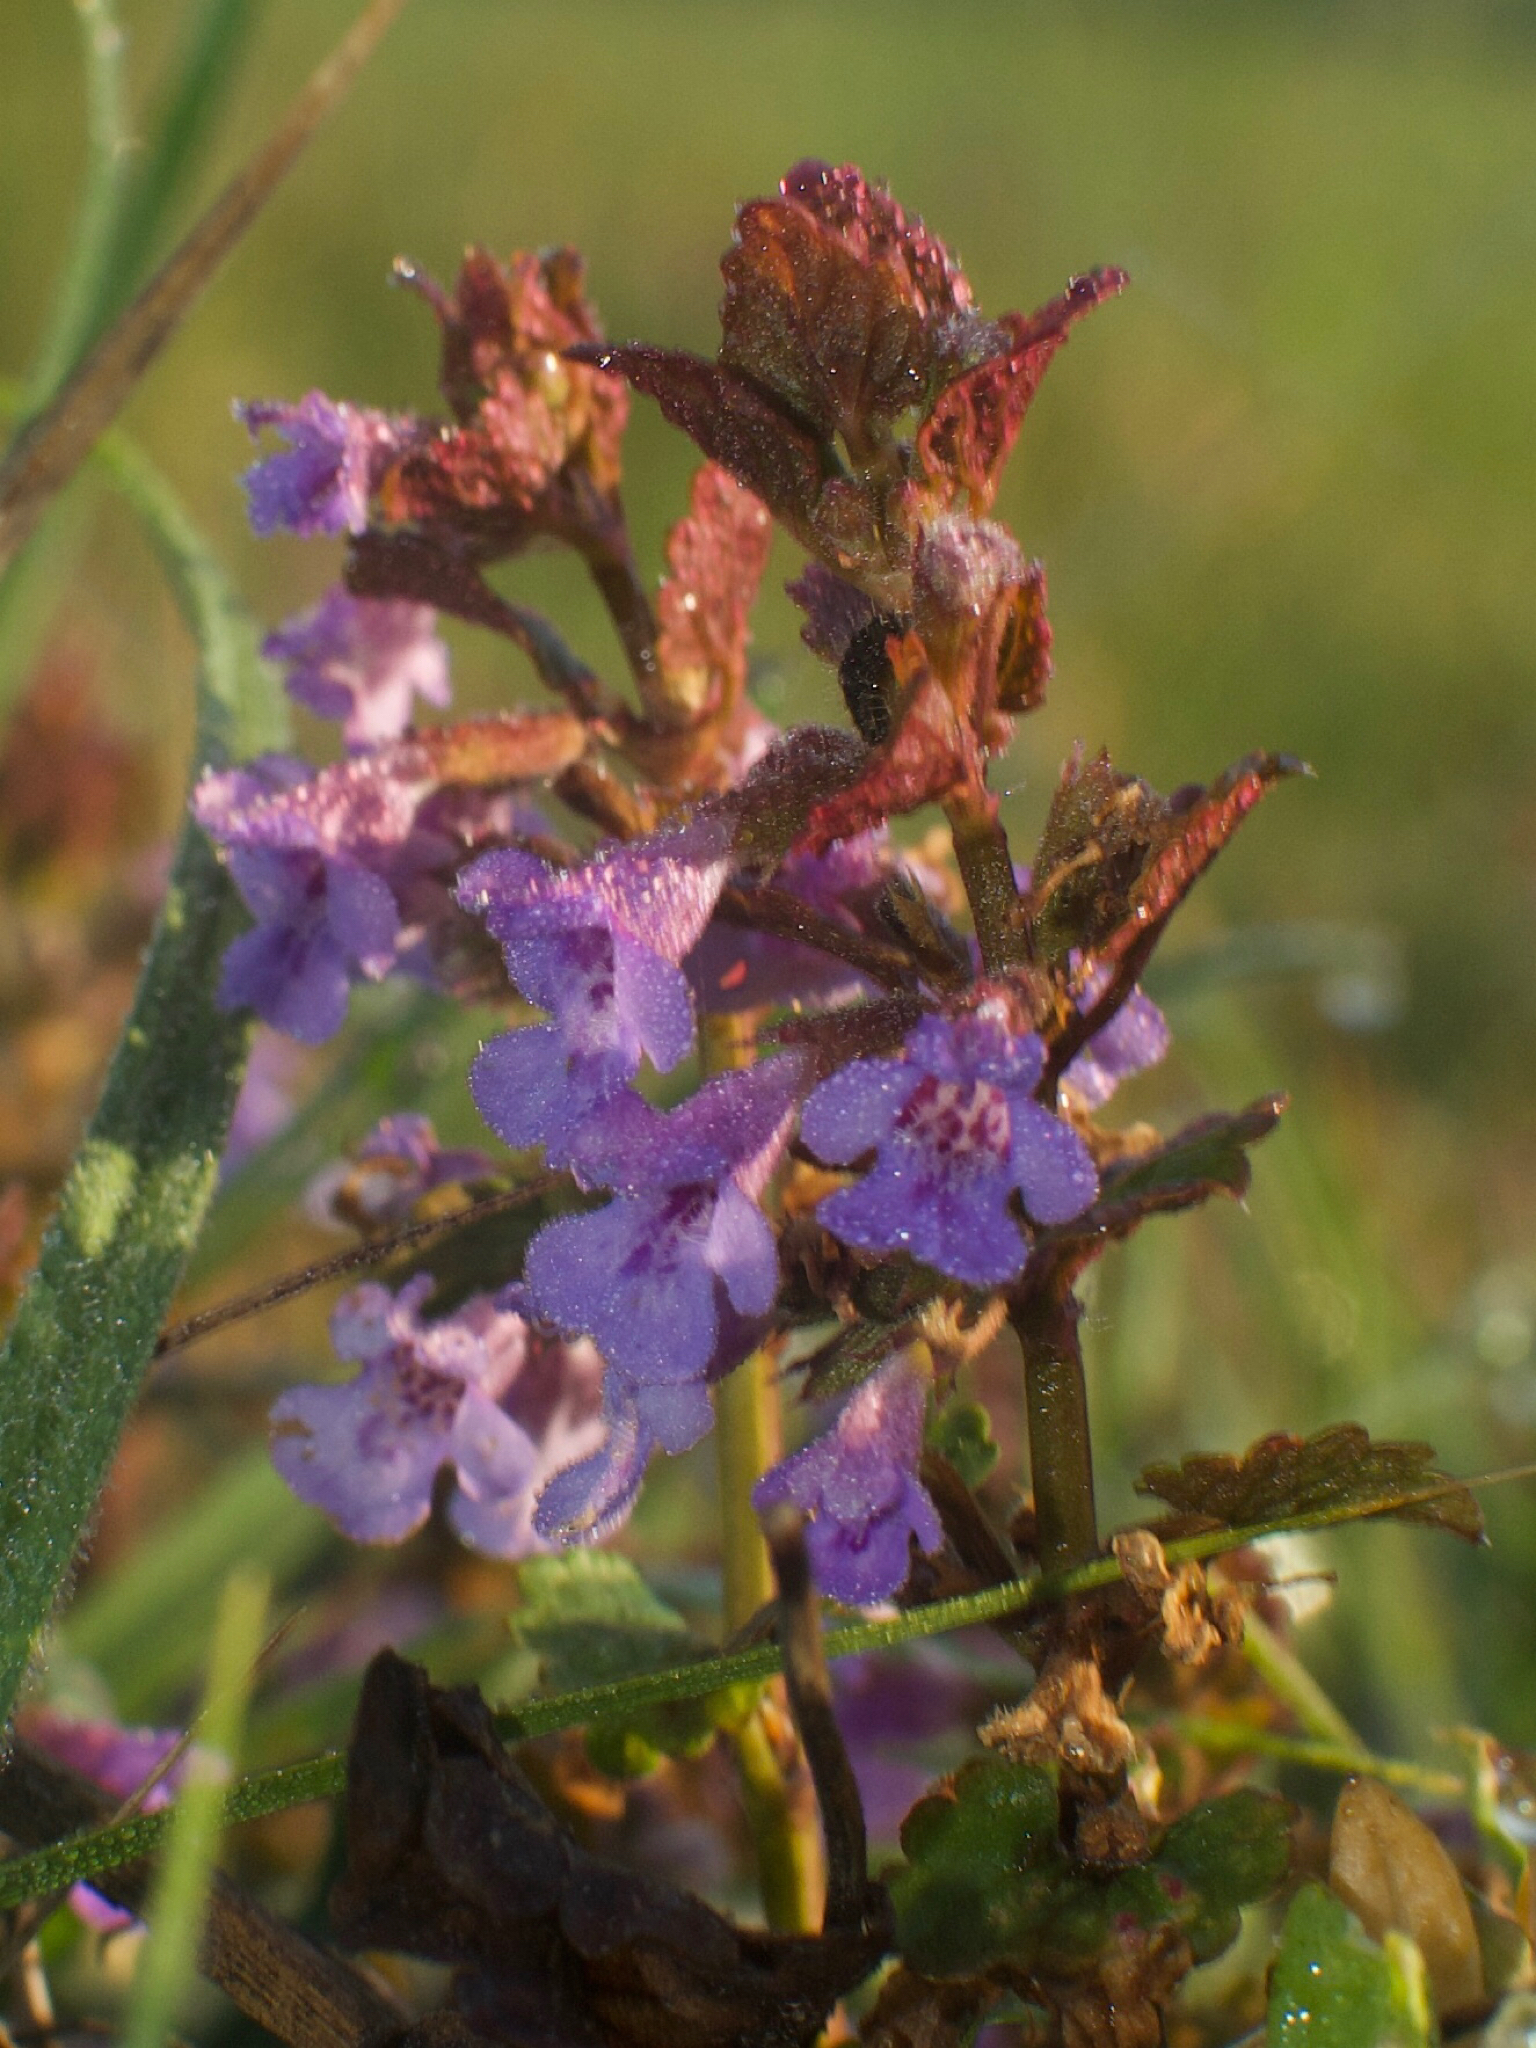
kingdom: Plantae
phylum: Tracheophyta
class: Magnoliopsida
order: Lamiales
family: Lamiaceae
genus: Glechoma
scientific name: Glechoma hederacea
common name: Ground ivy
